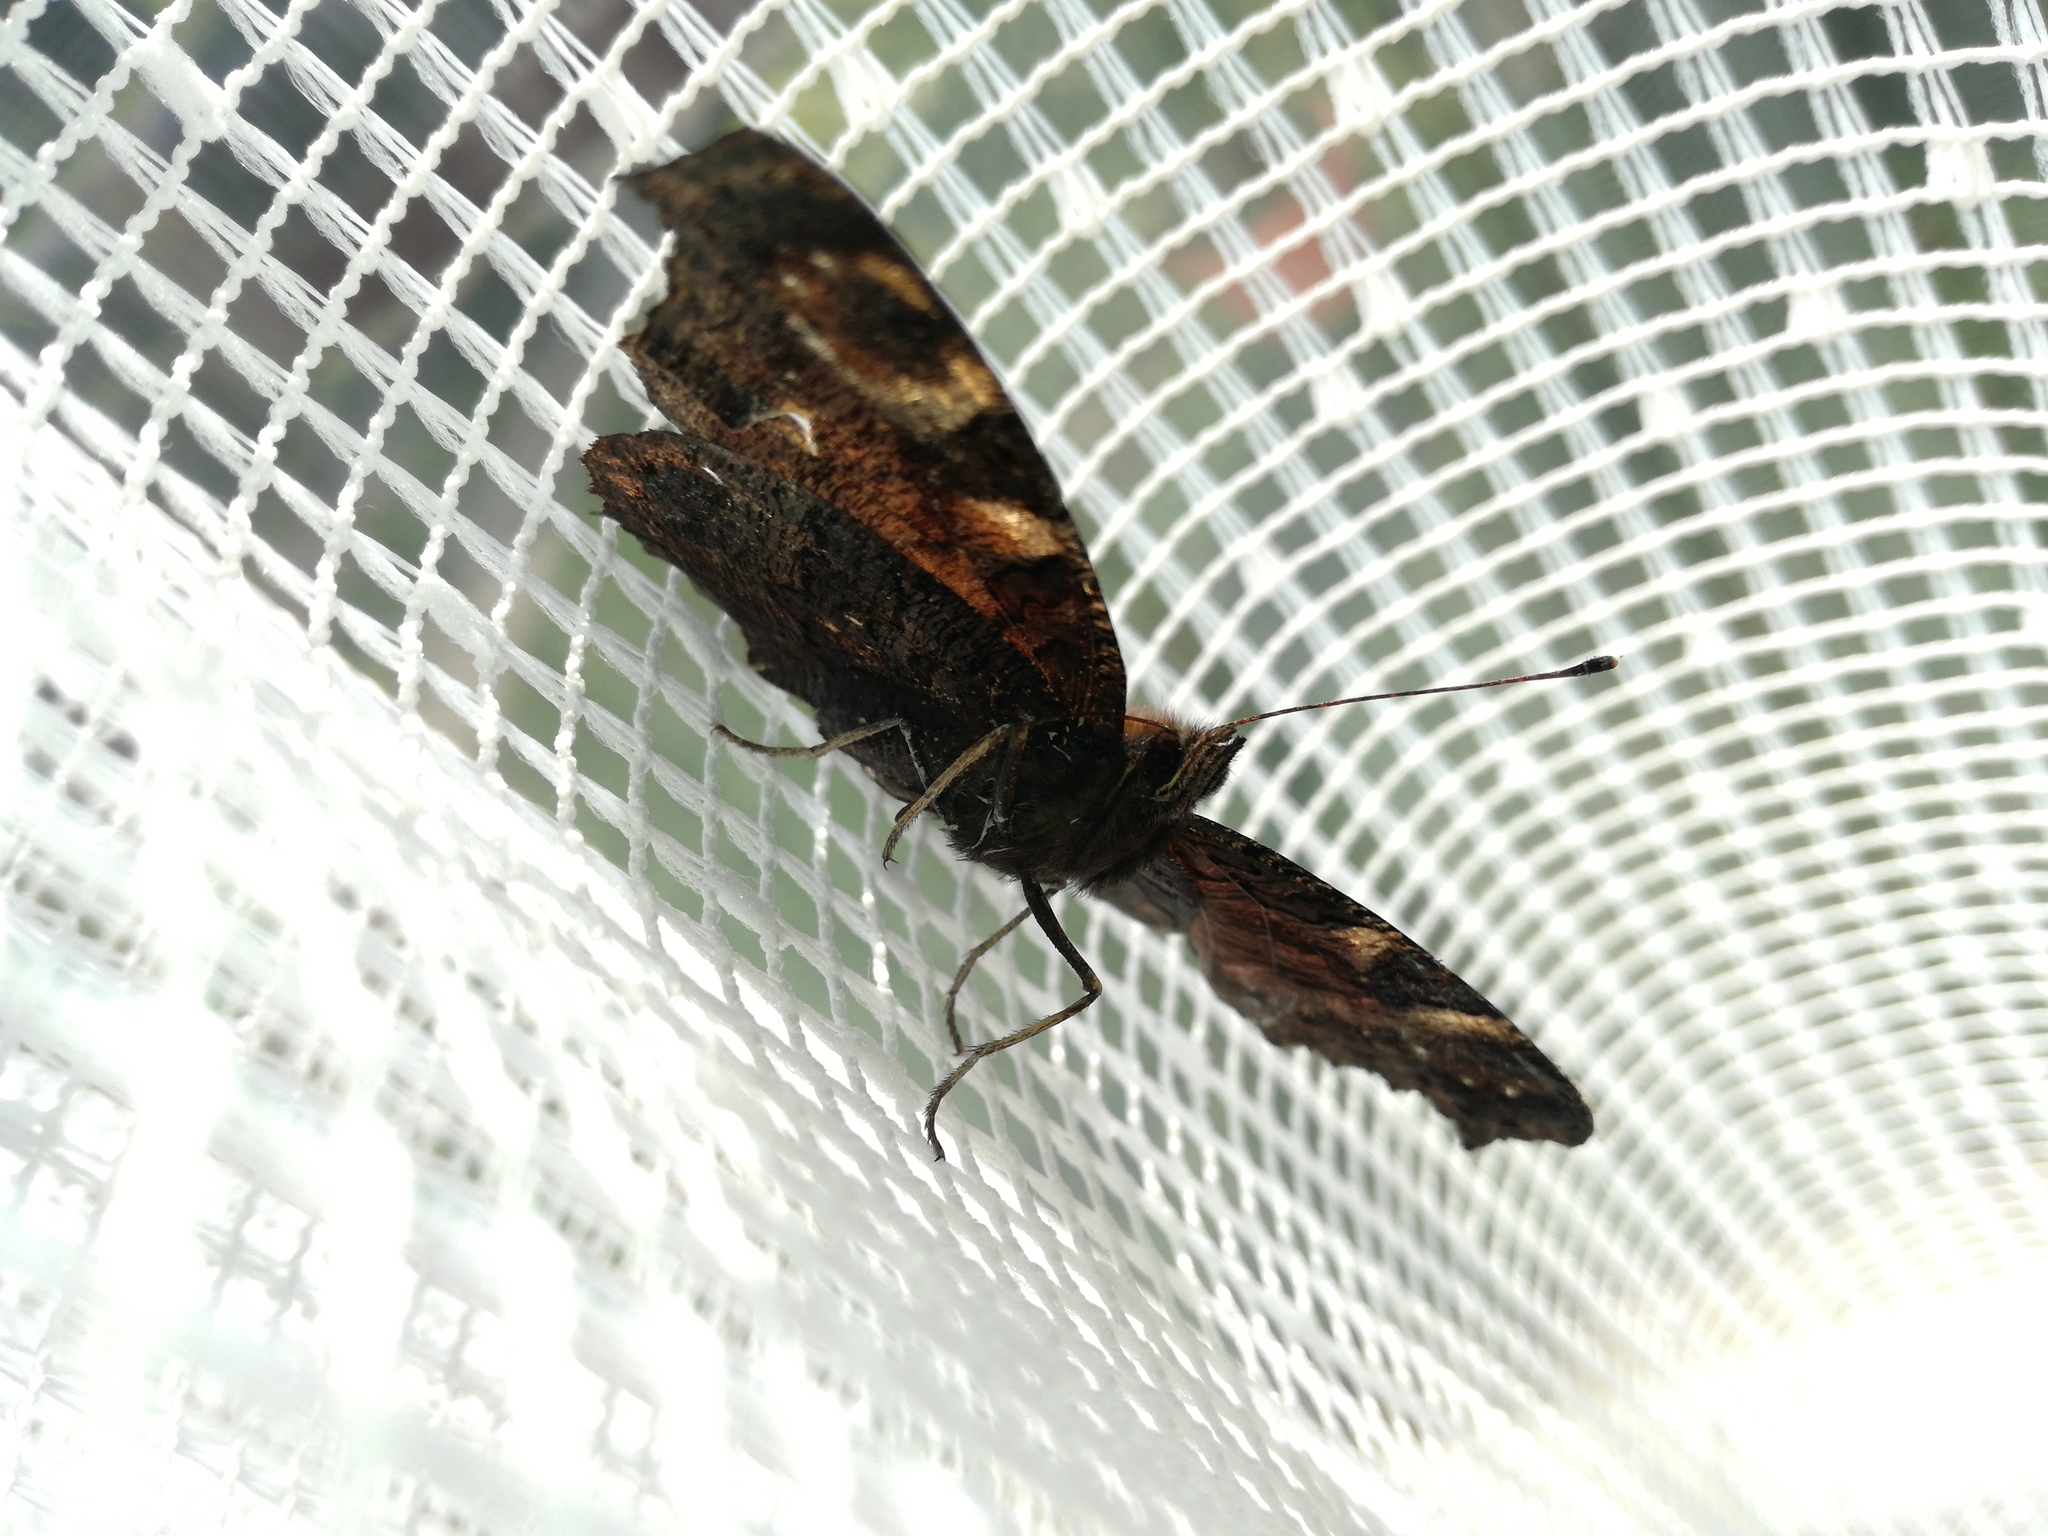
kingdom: Animalia
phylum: Arthropoda
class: Insecta
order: Lepidoptera
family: Nymphalidae
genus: Aglais
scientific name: Aglais io
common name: Peacock
